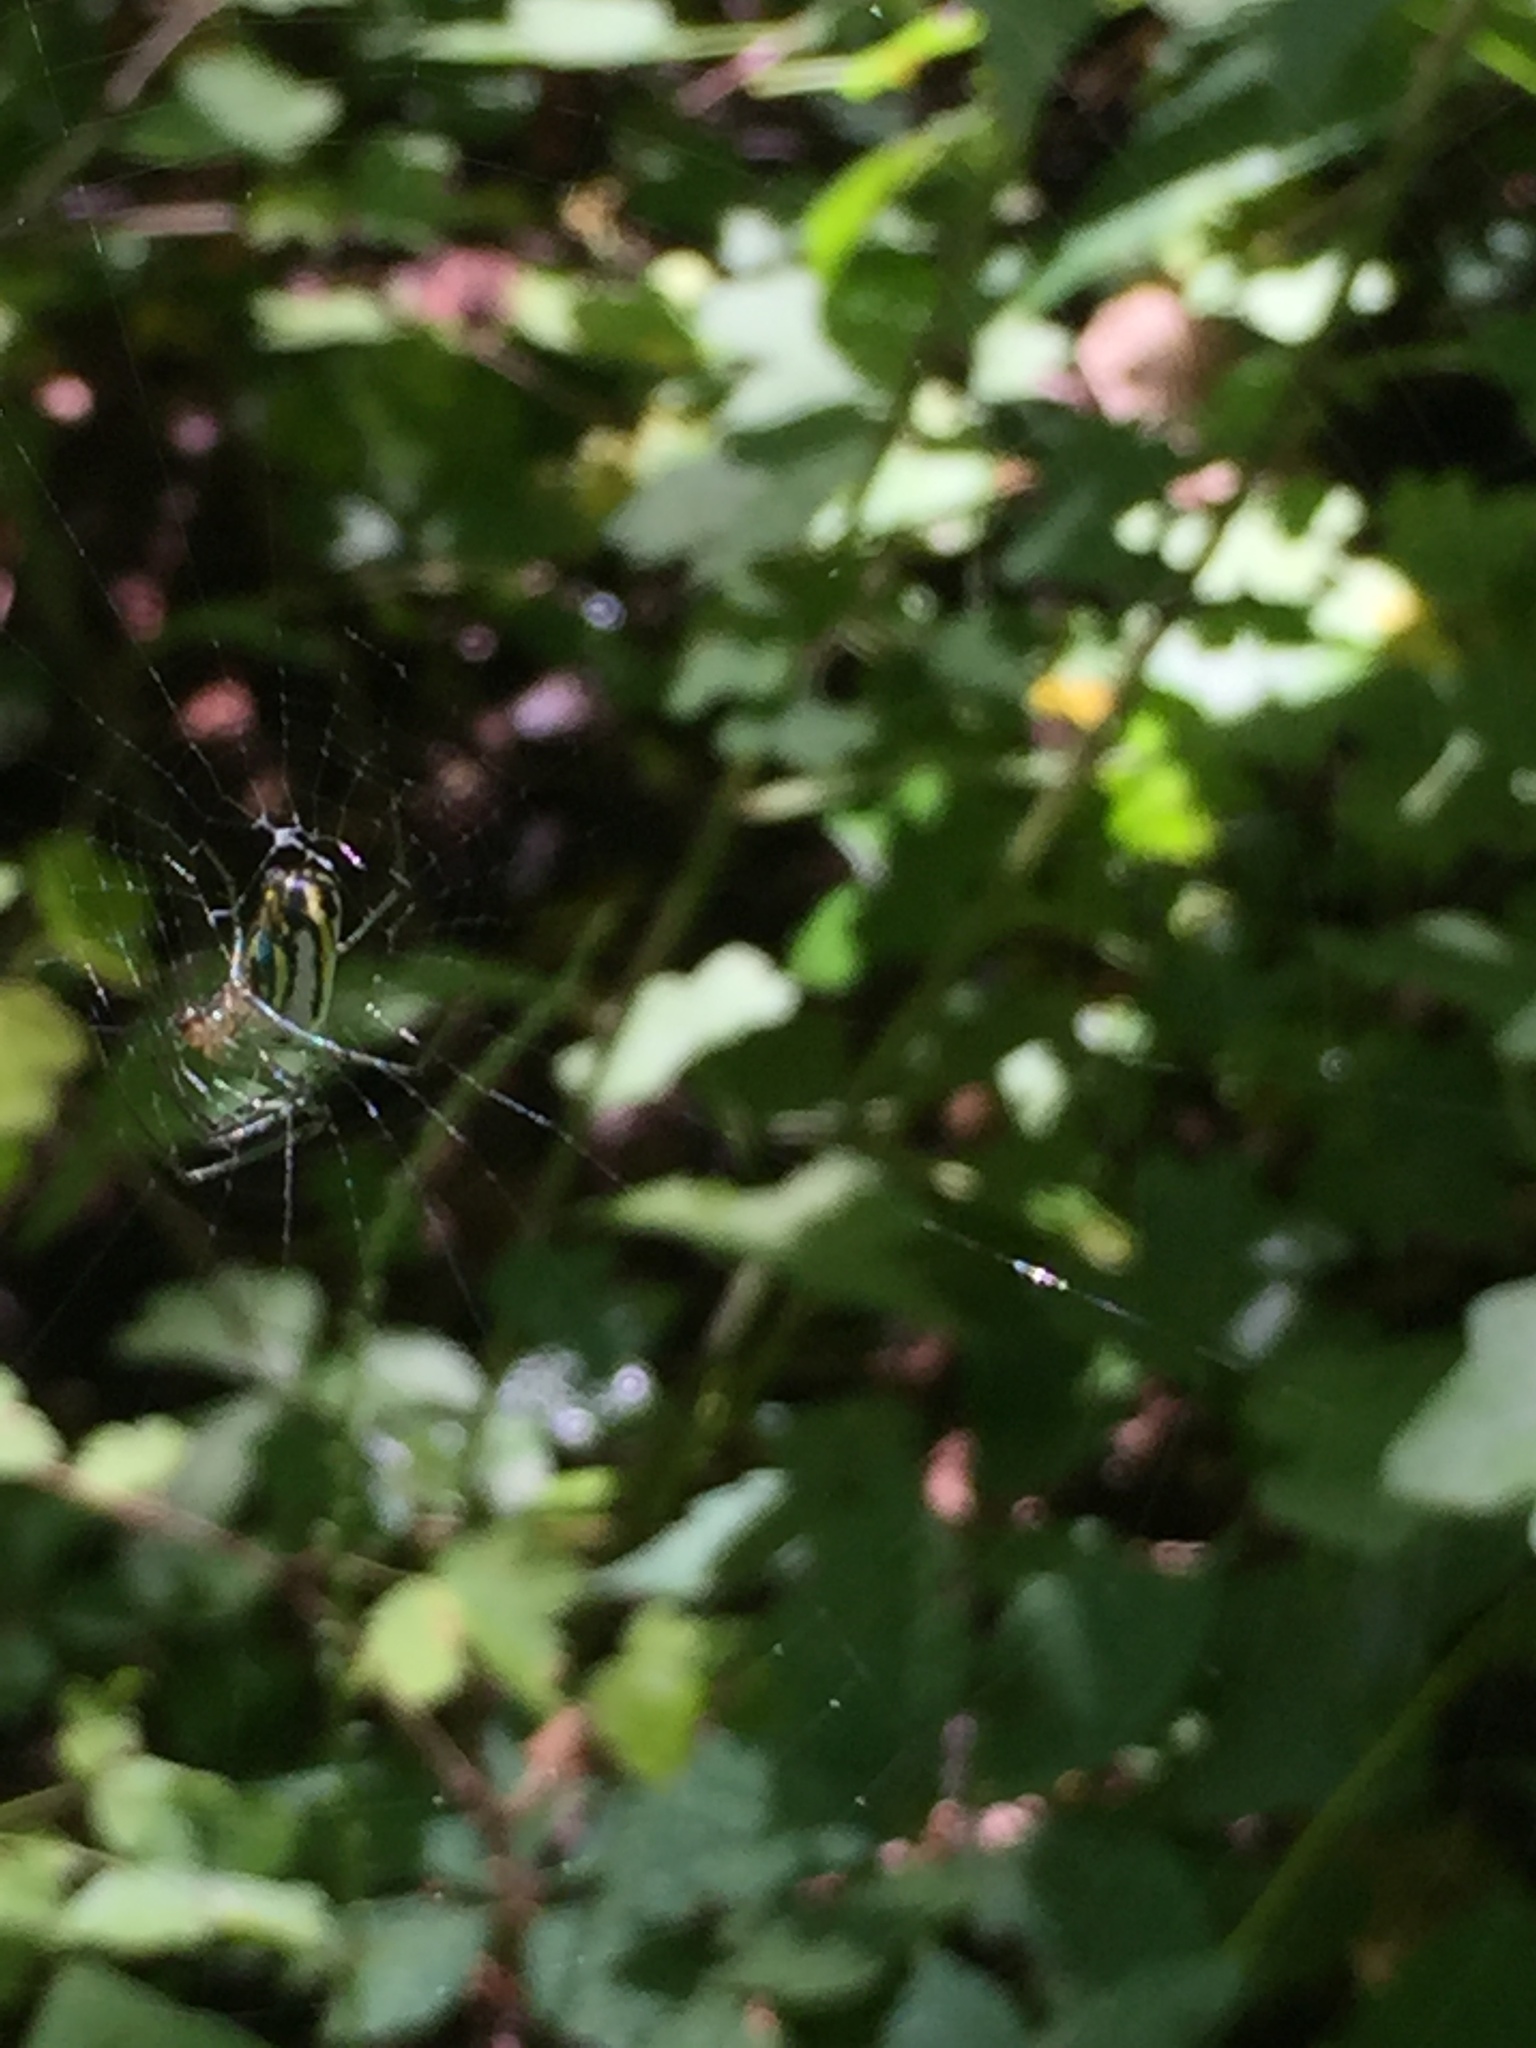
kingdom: Animalia
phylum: Arthropoda
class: Arachnida
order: Araneae
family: Tetragnathidae
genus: Leucauge
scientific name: Leucauge venusta
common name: Longjawed orb weavers
